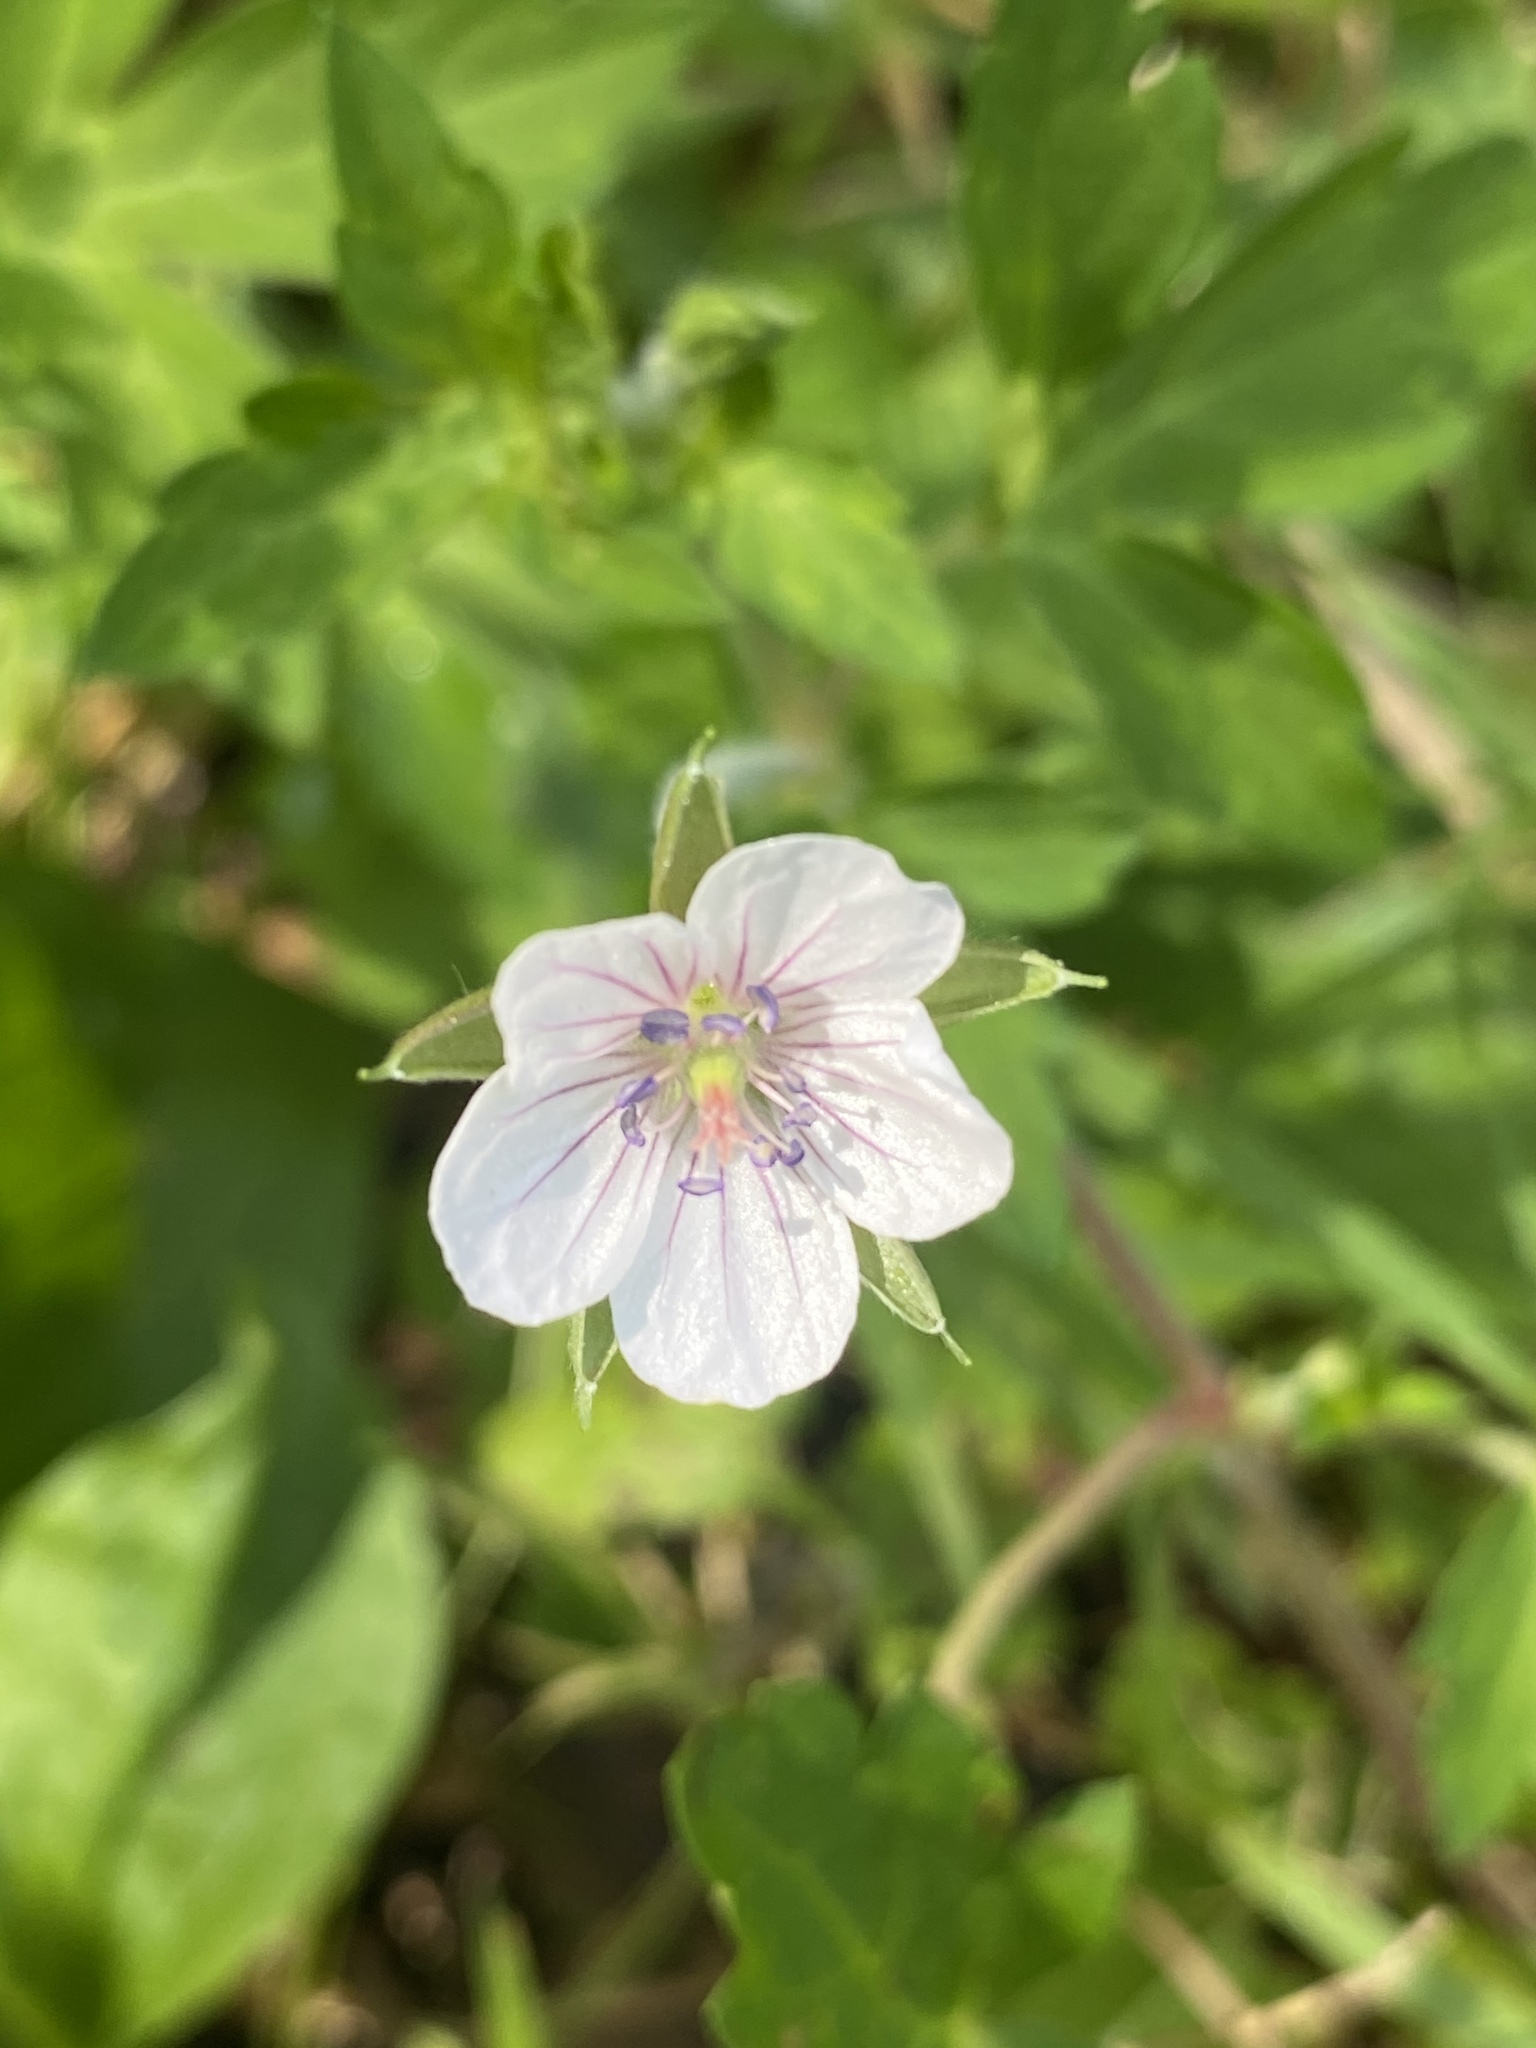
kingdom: Plantae
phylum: Tracheophyta
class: Magnoliopsida
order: Geraniales
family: Geraniaceae
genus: Geranium
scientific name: Geranium thunbergii
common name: Dewdrop crane's-bill
